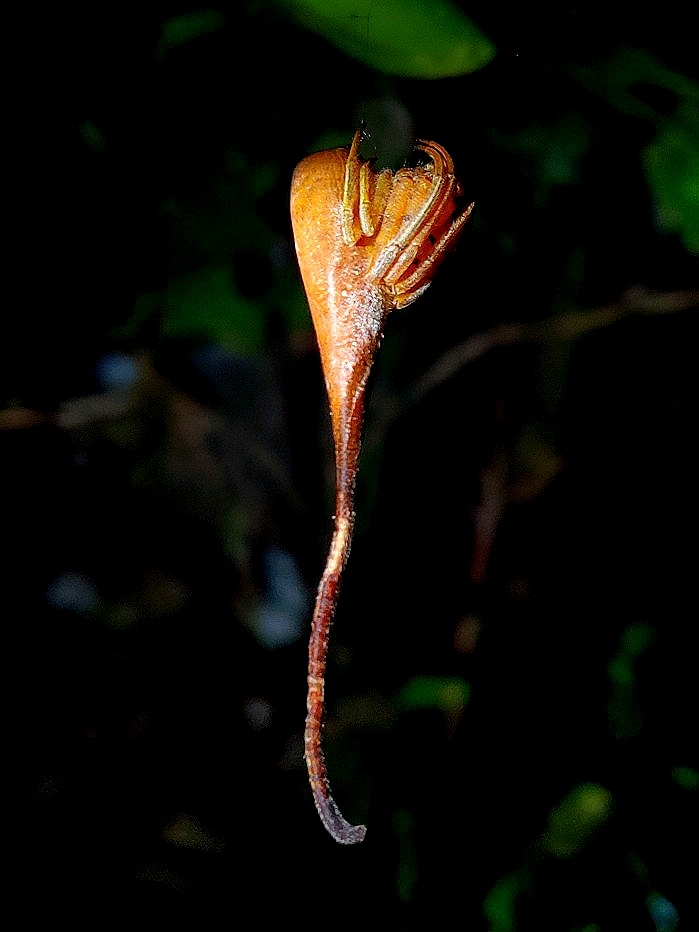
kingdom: Animalia
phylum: Arthropoda
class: Arachnida
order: Araneae
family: Araneidae
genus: Poltys
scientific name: Poltys idae
